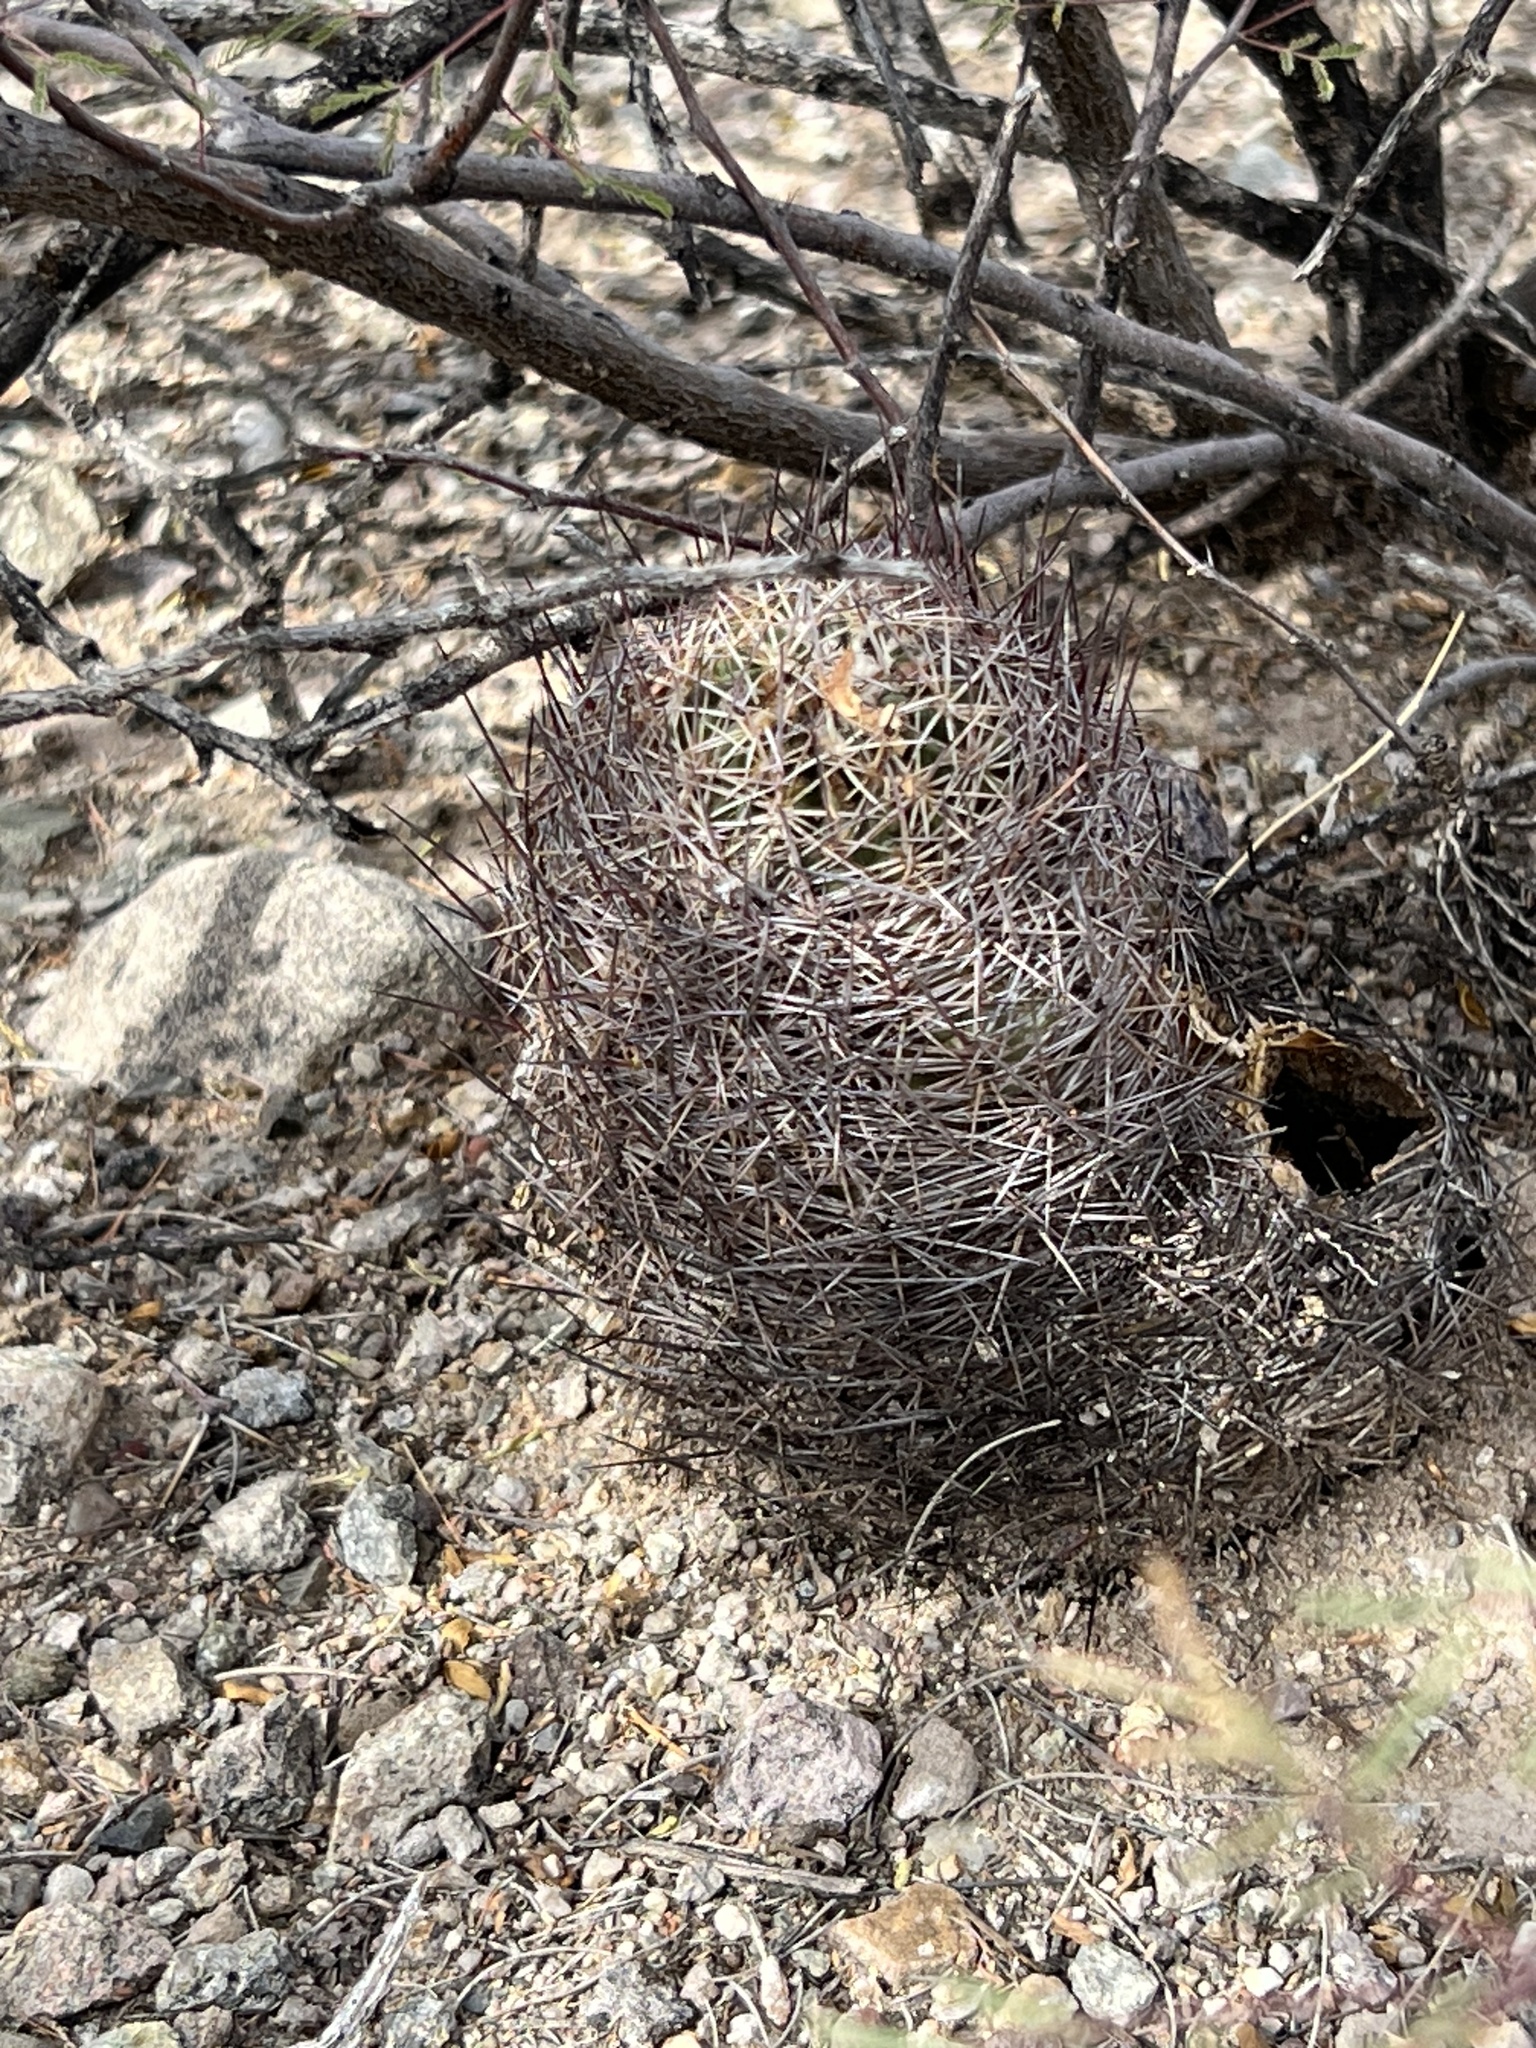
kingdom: Plantae
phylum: Tracheophyta
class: Magnoliopsida
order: Caryophyllales
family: Cactaceae
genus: Sclerocactus
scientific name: Sclerocactus johnsonii
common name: Eight-spine fishhook cactus
